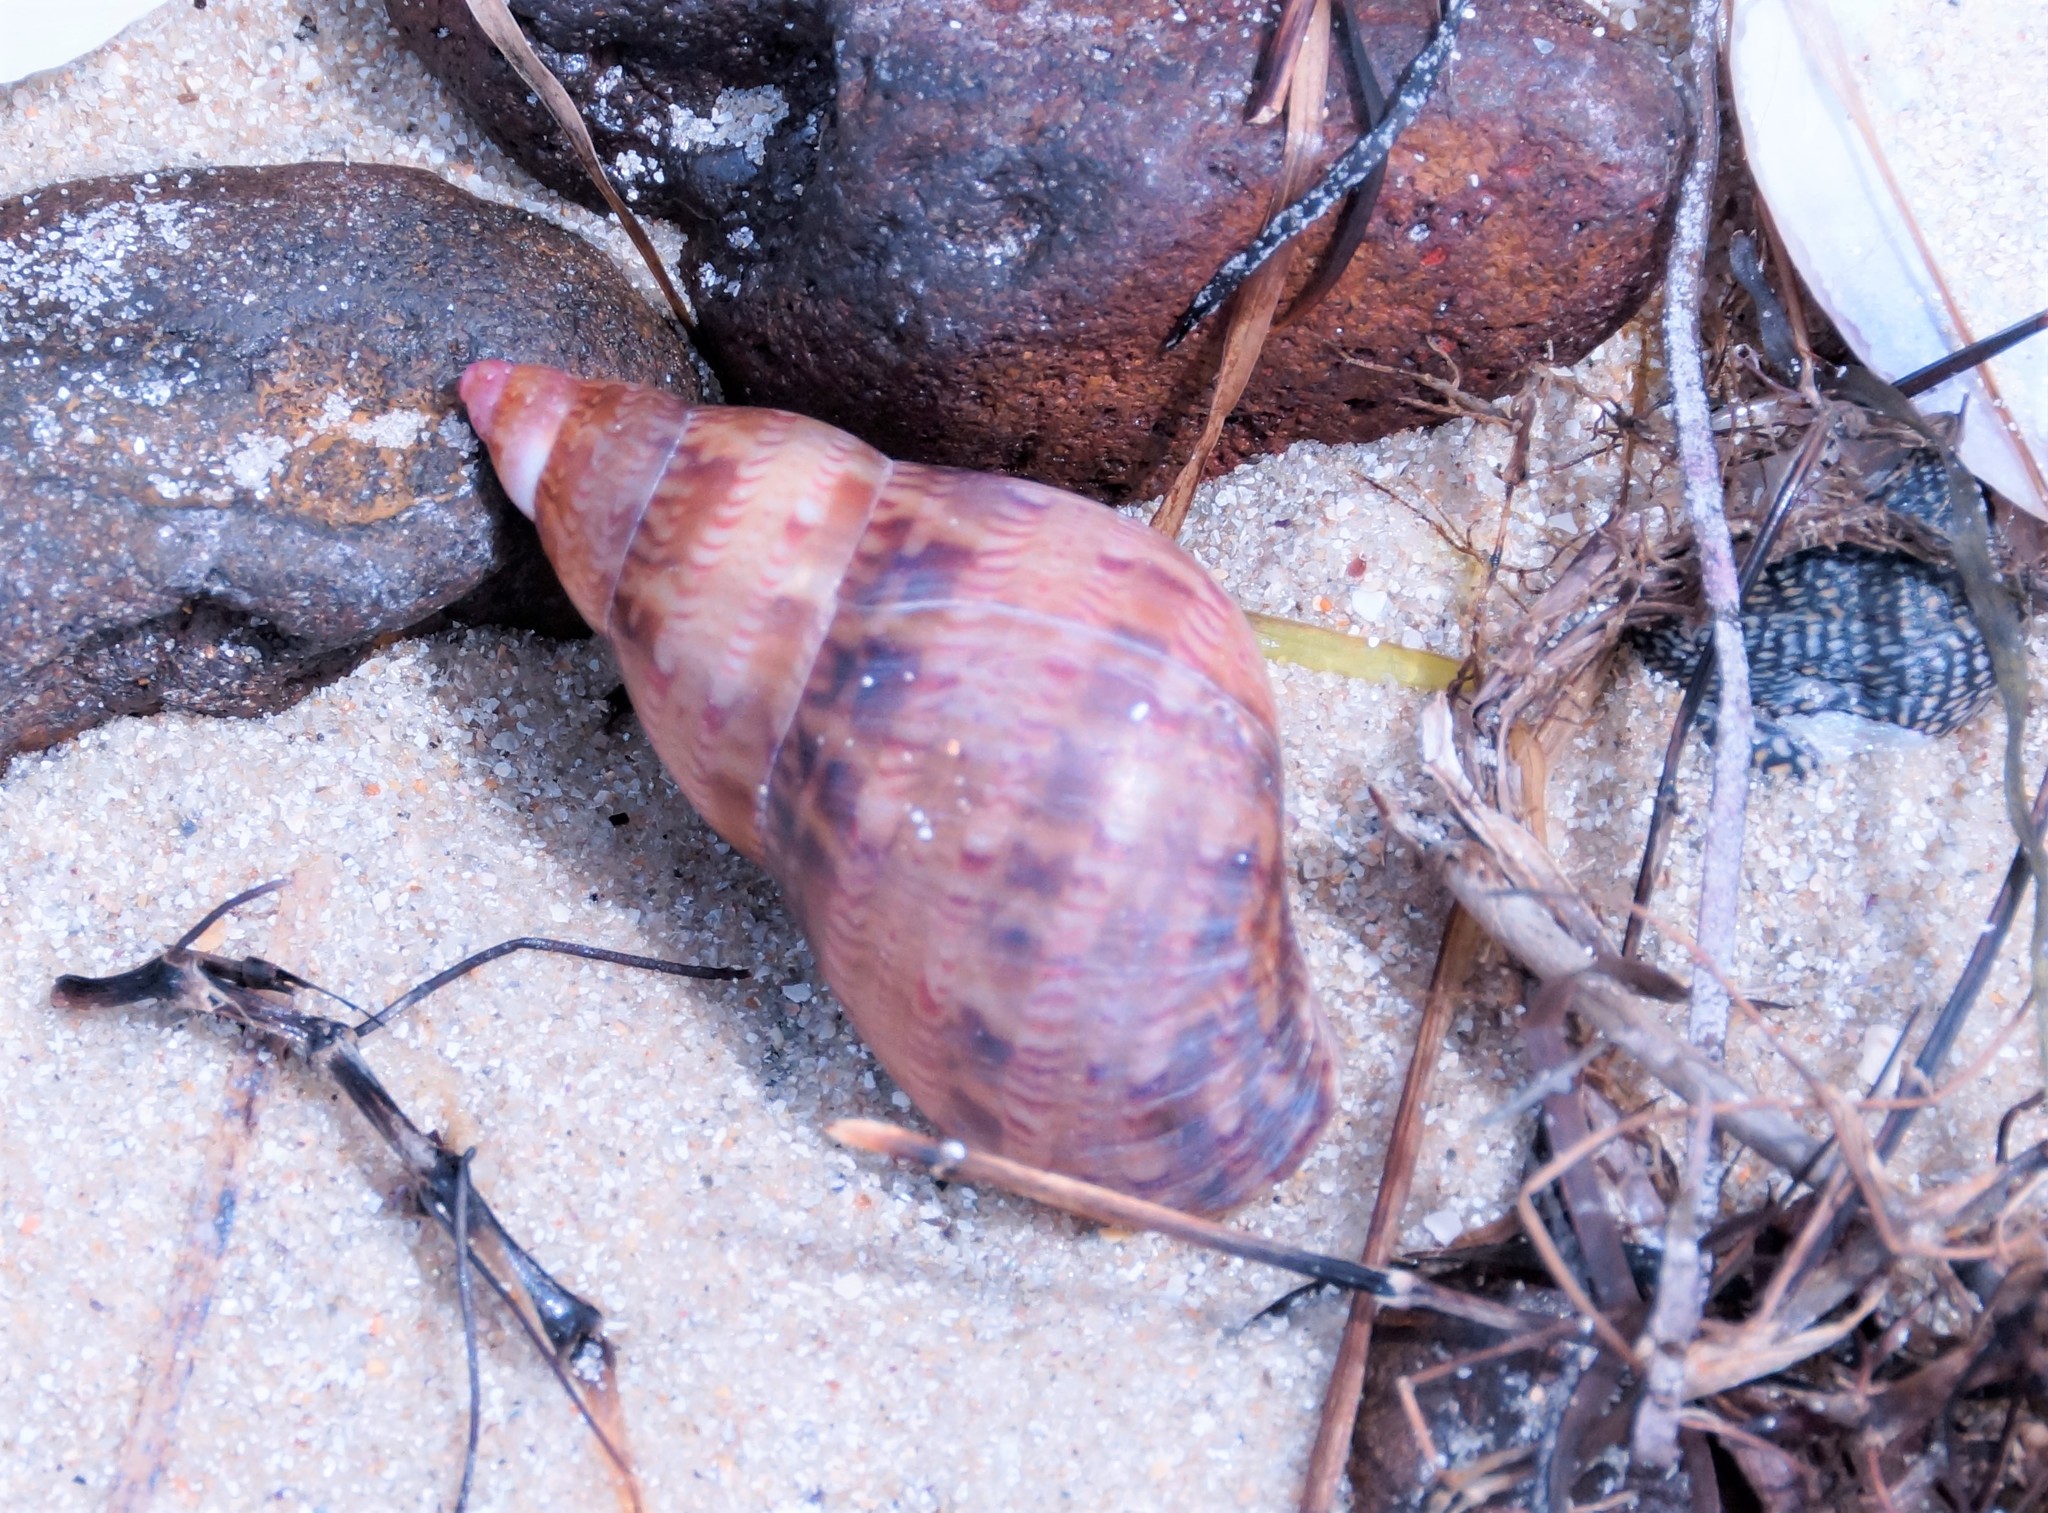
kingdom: Animalia
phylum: Mollusca
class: Gastropoda
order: Trochida
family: Phasianellidae
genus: Phasianella
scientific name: Phasianella australis
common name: Painted lady
